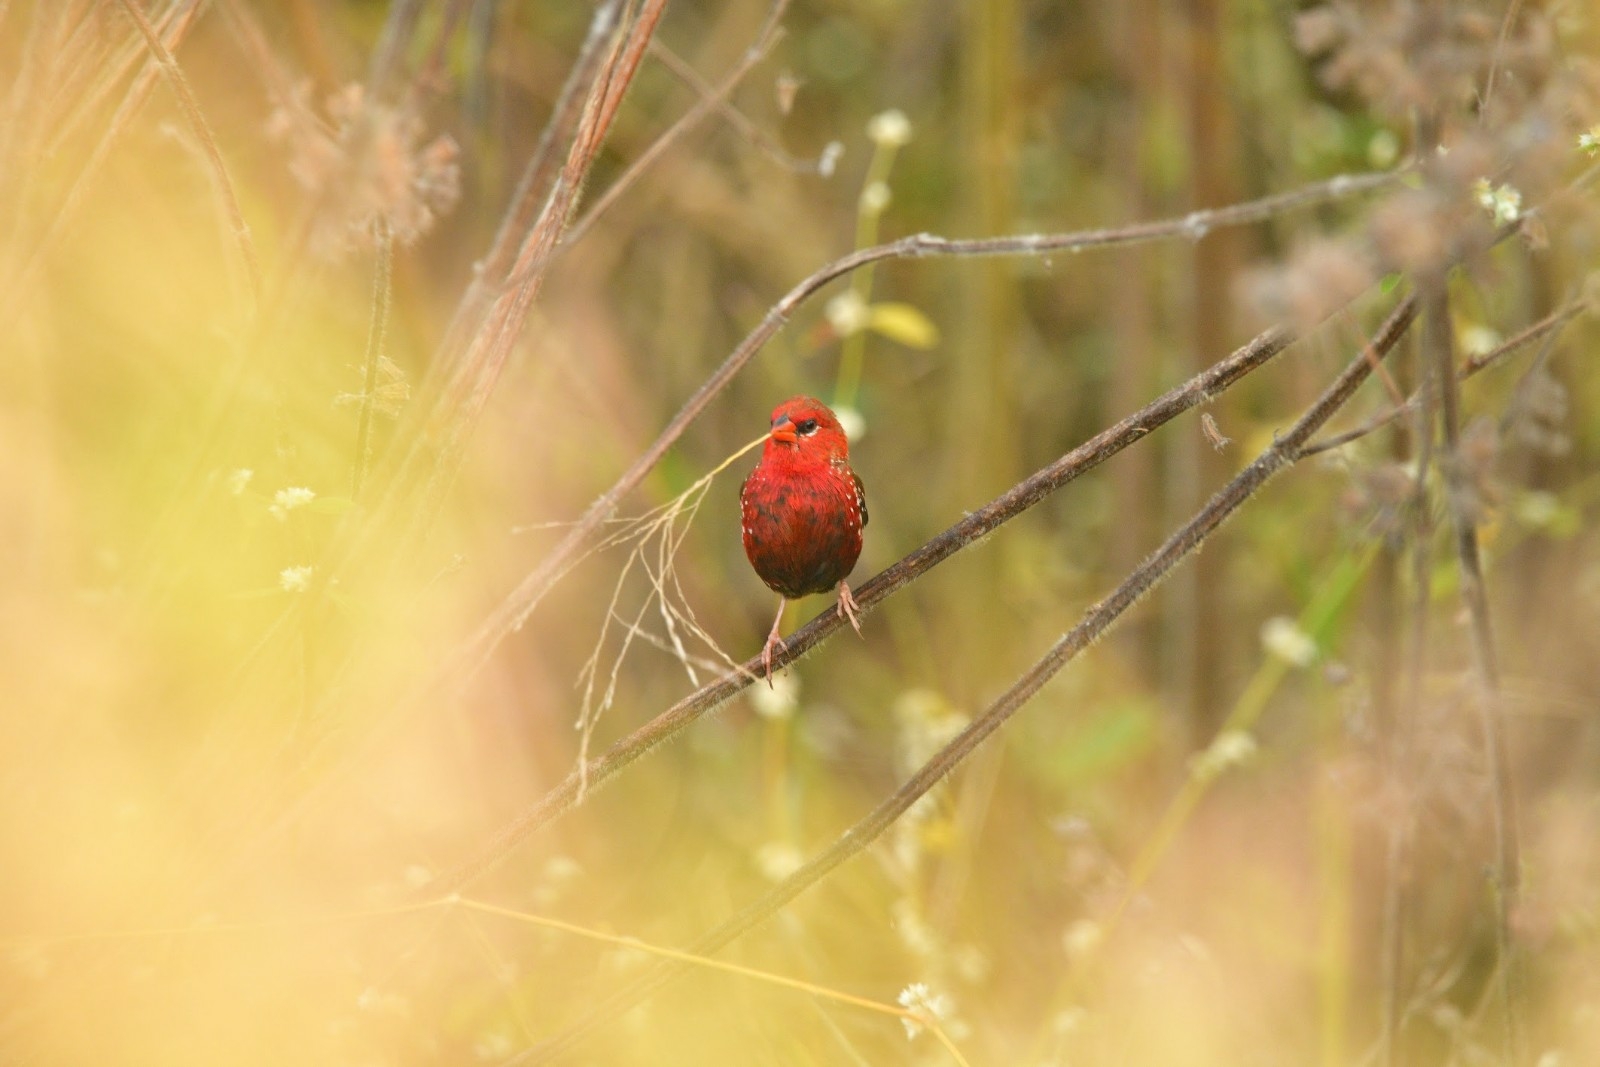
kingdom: Animalia
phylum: Chordata
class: Aves
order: Passeriformes
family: Estrildidae
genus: Amandava
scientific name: Amandava amandava
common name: Red avadavat
